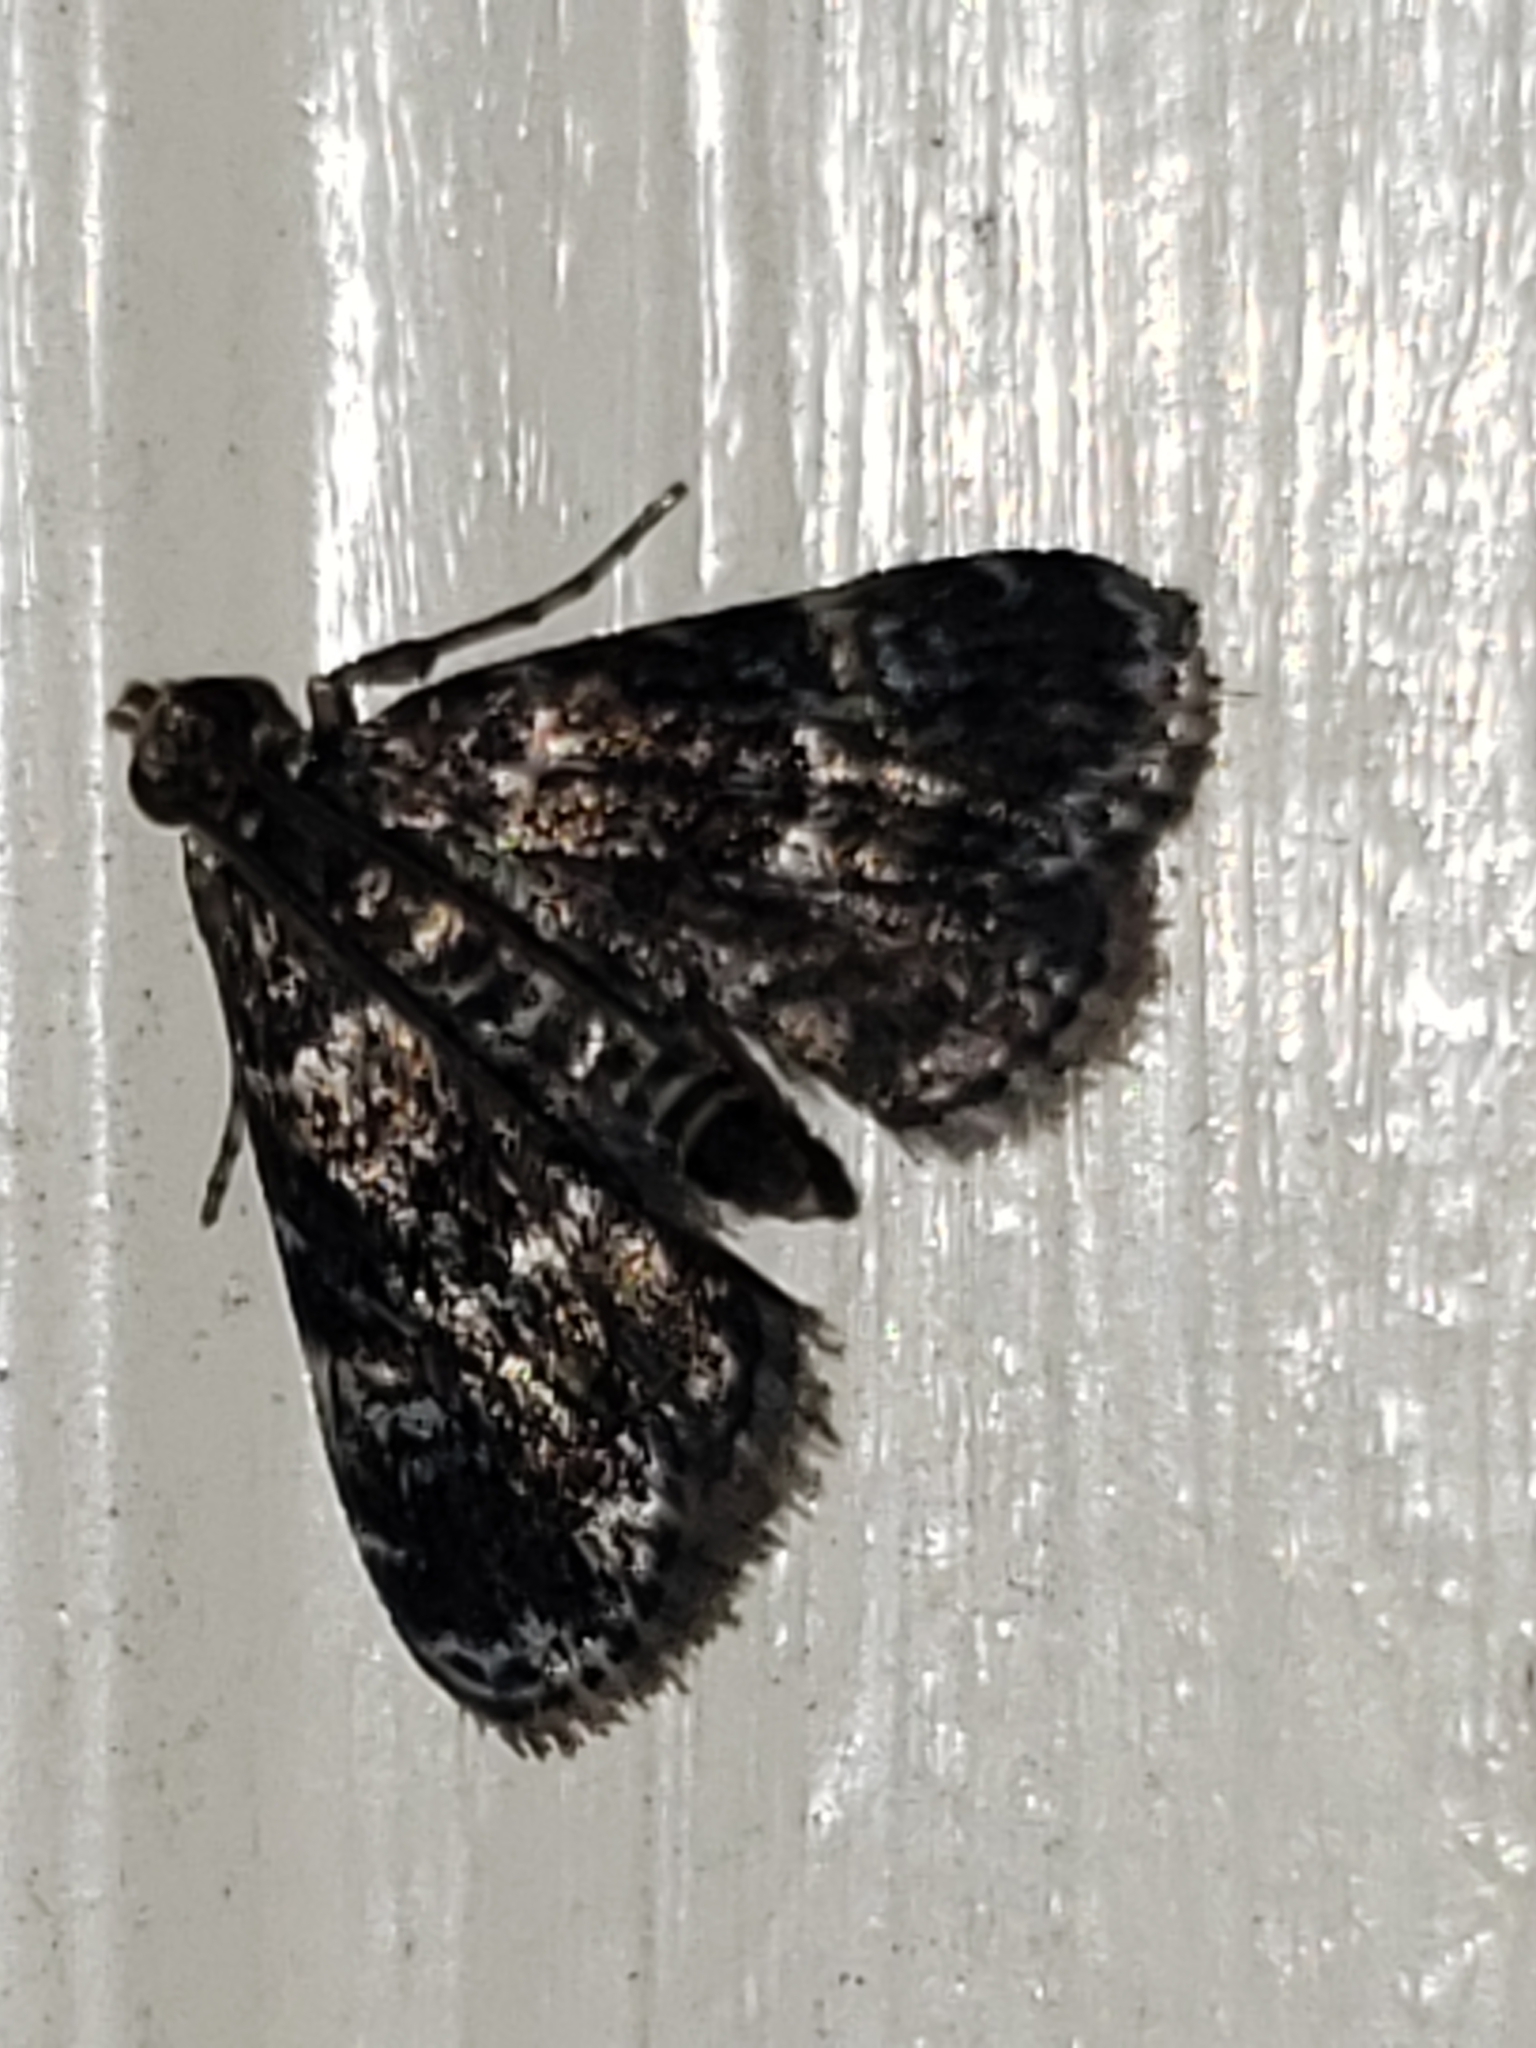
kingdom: Animalia
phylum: Arthropoda
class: Insecta
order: Lepidoptera
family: Crambidae
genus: Elophila
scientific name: Elophila obliteralis
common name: Waterlily leafcutter moth
